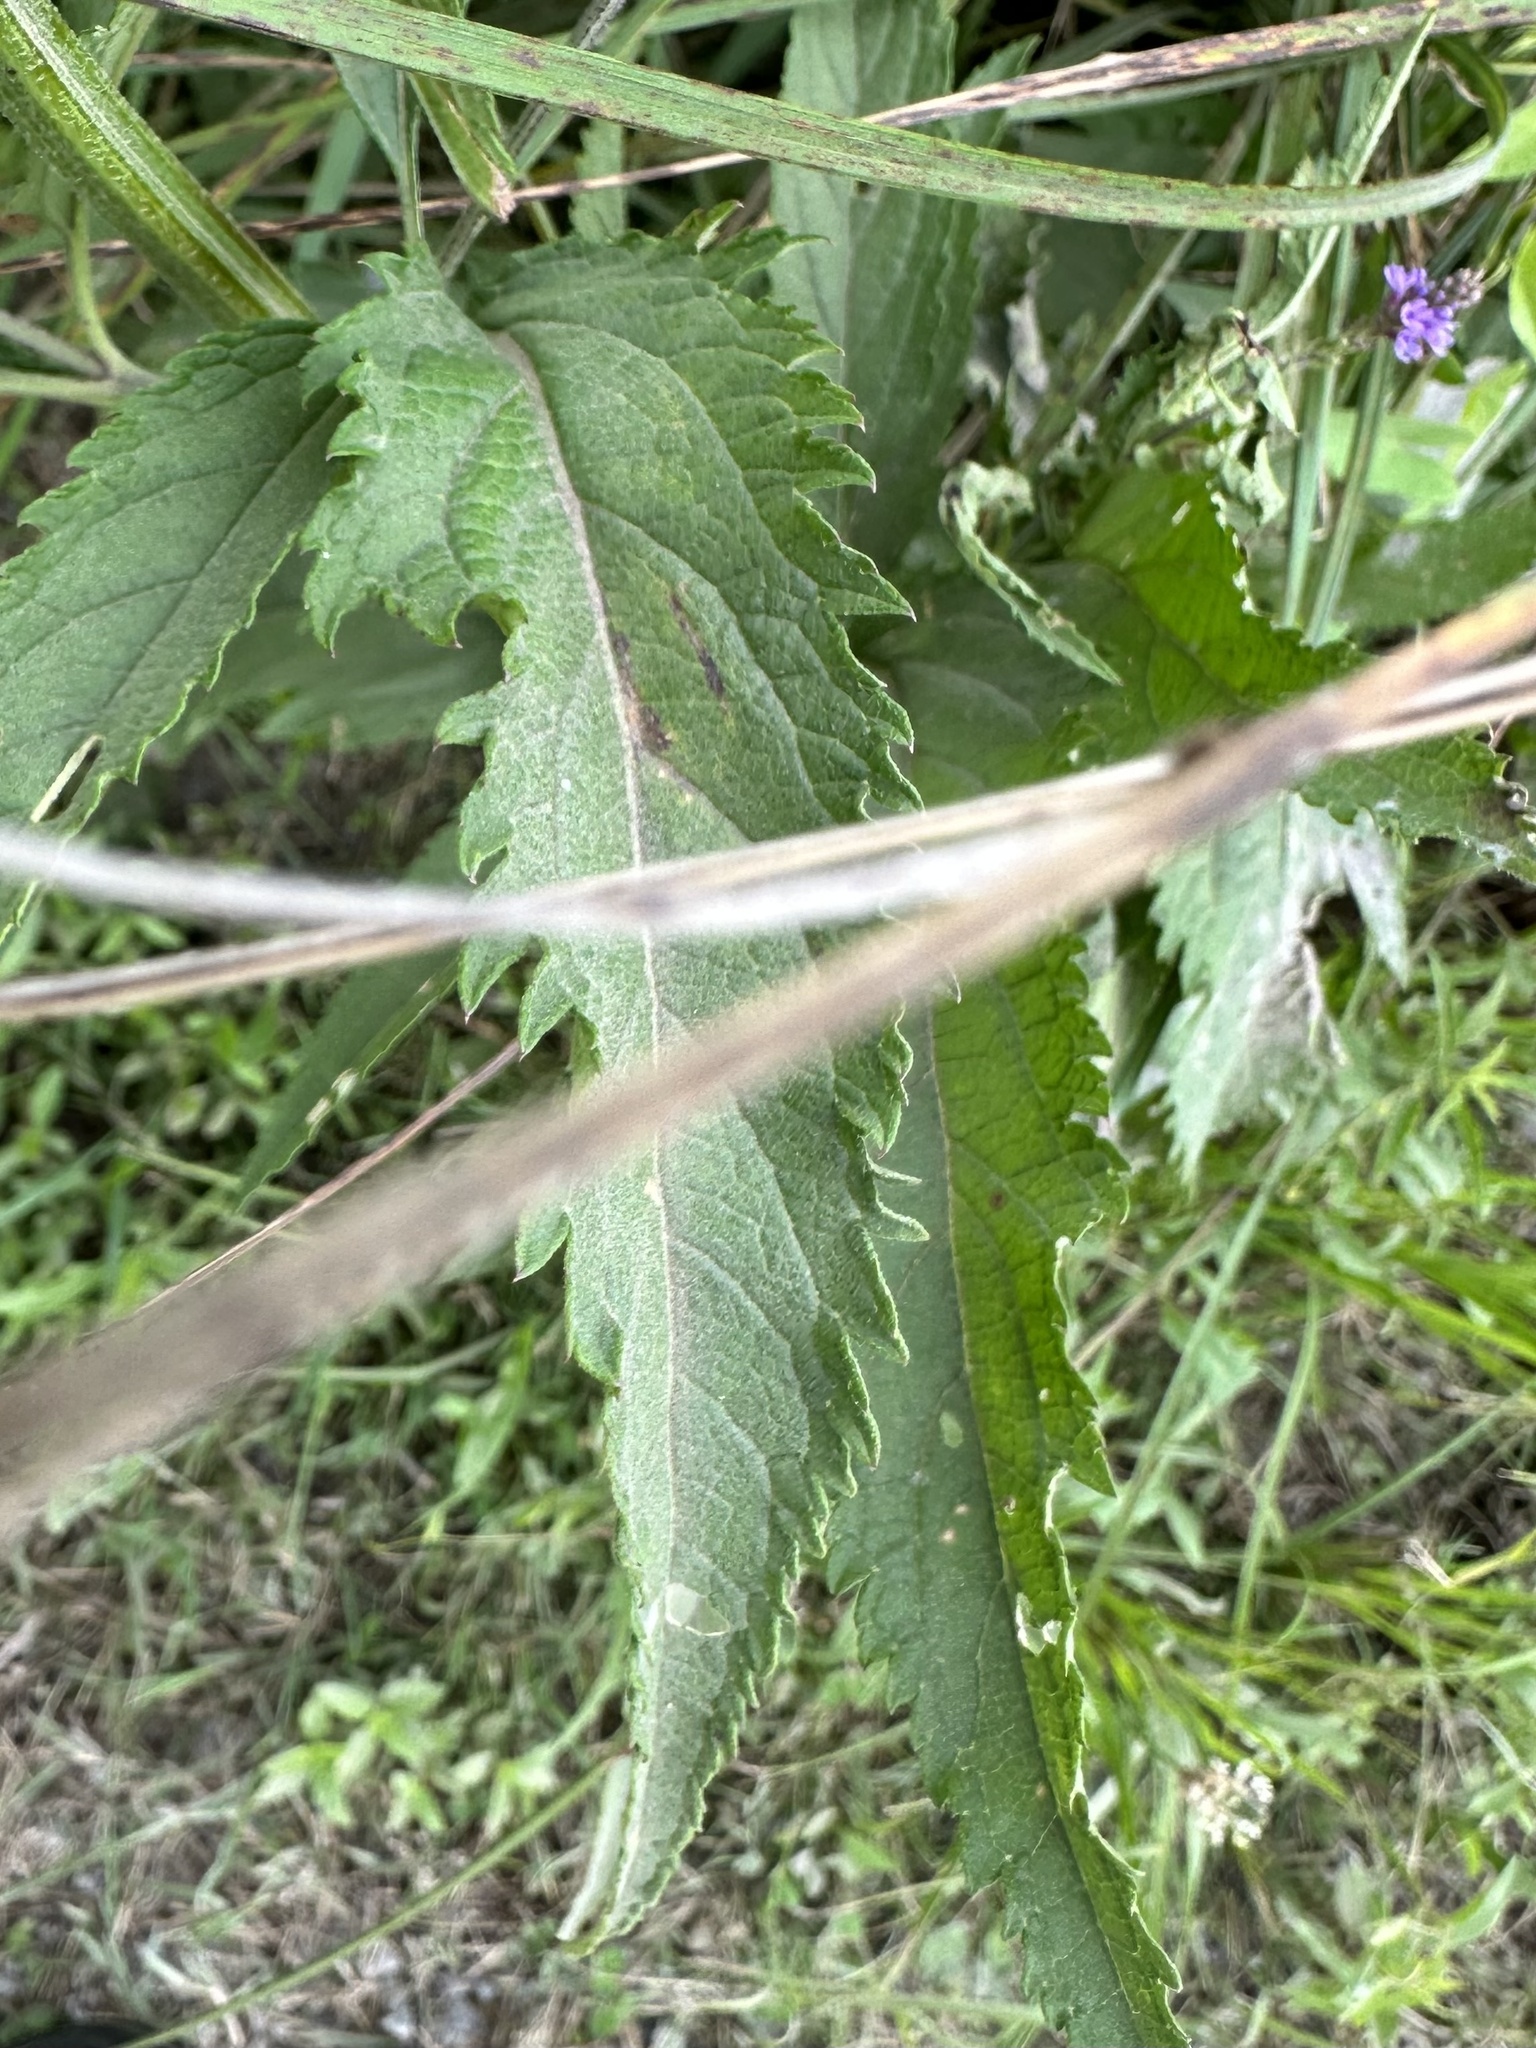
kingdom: Plantae
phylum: Tracheophyta
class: Magnoliopsida
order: Lamiales
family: Verbenaceae
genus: Verbena
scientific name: Verbena hastata
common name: American blue vervain
